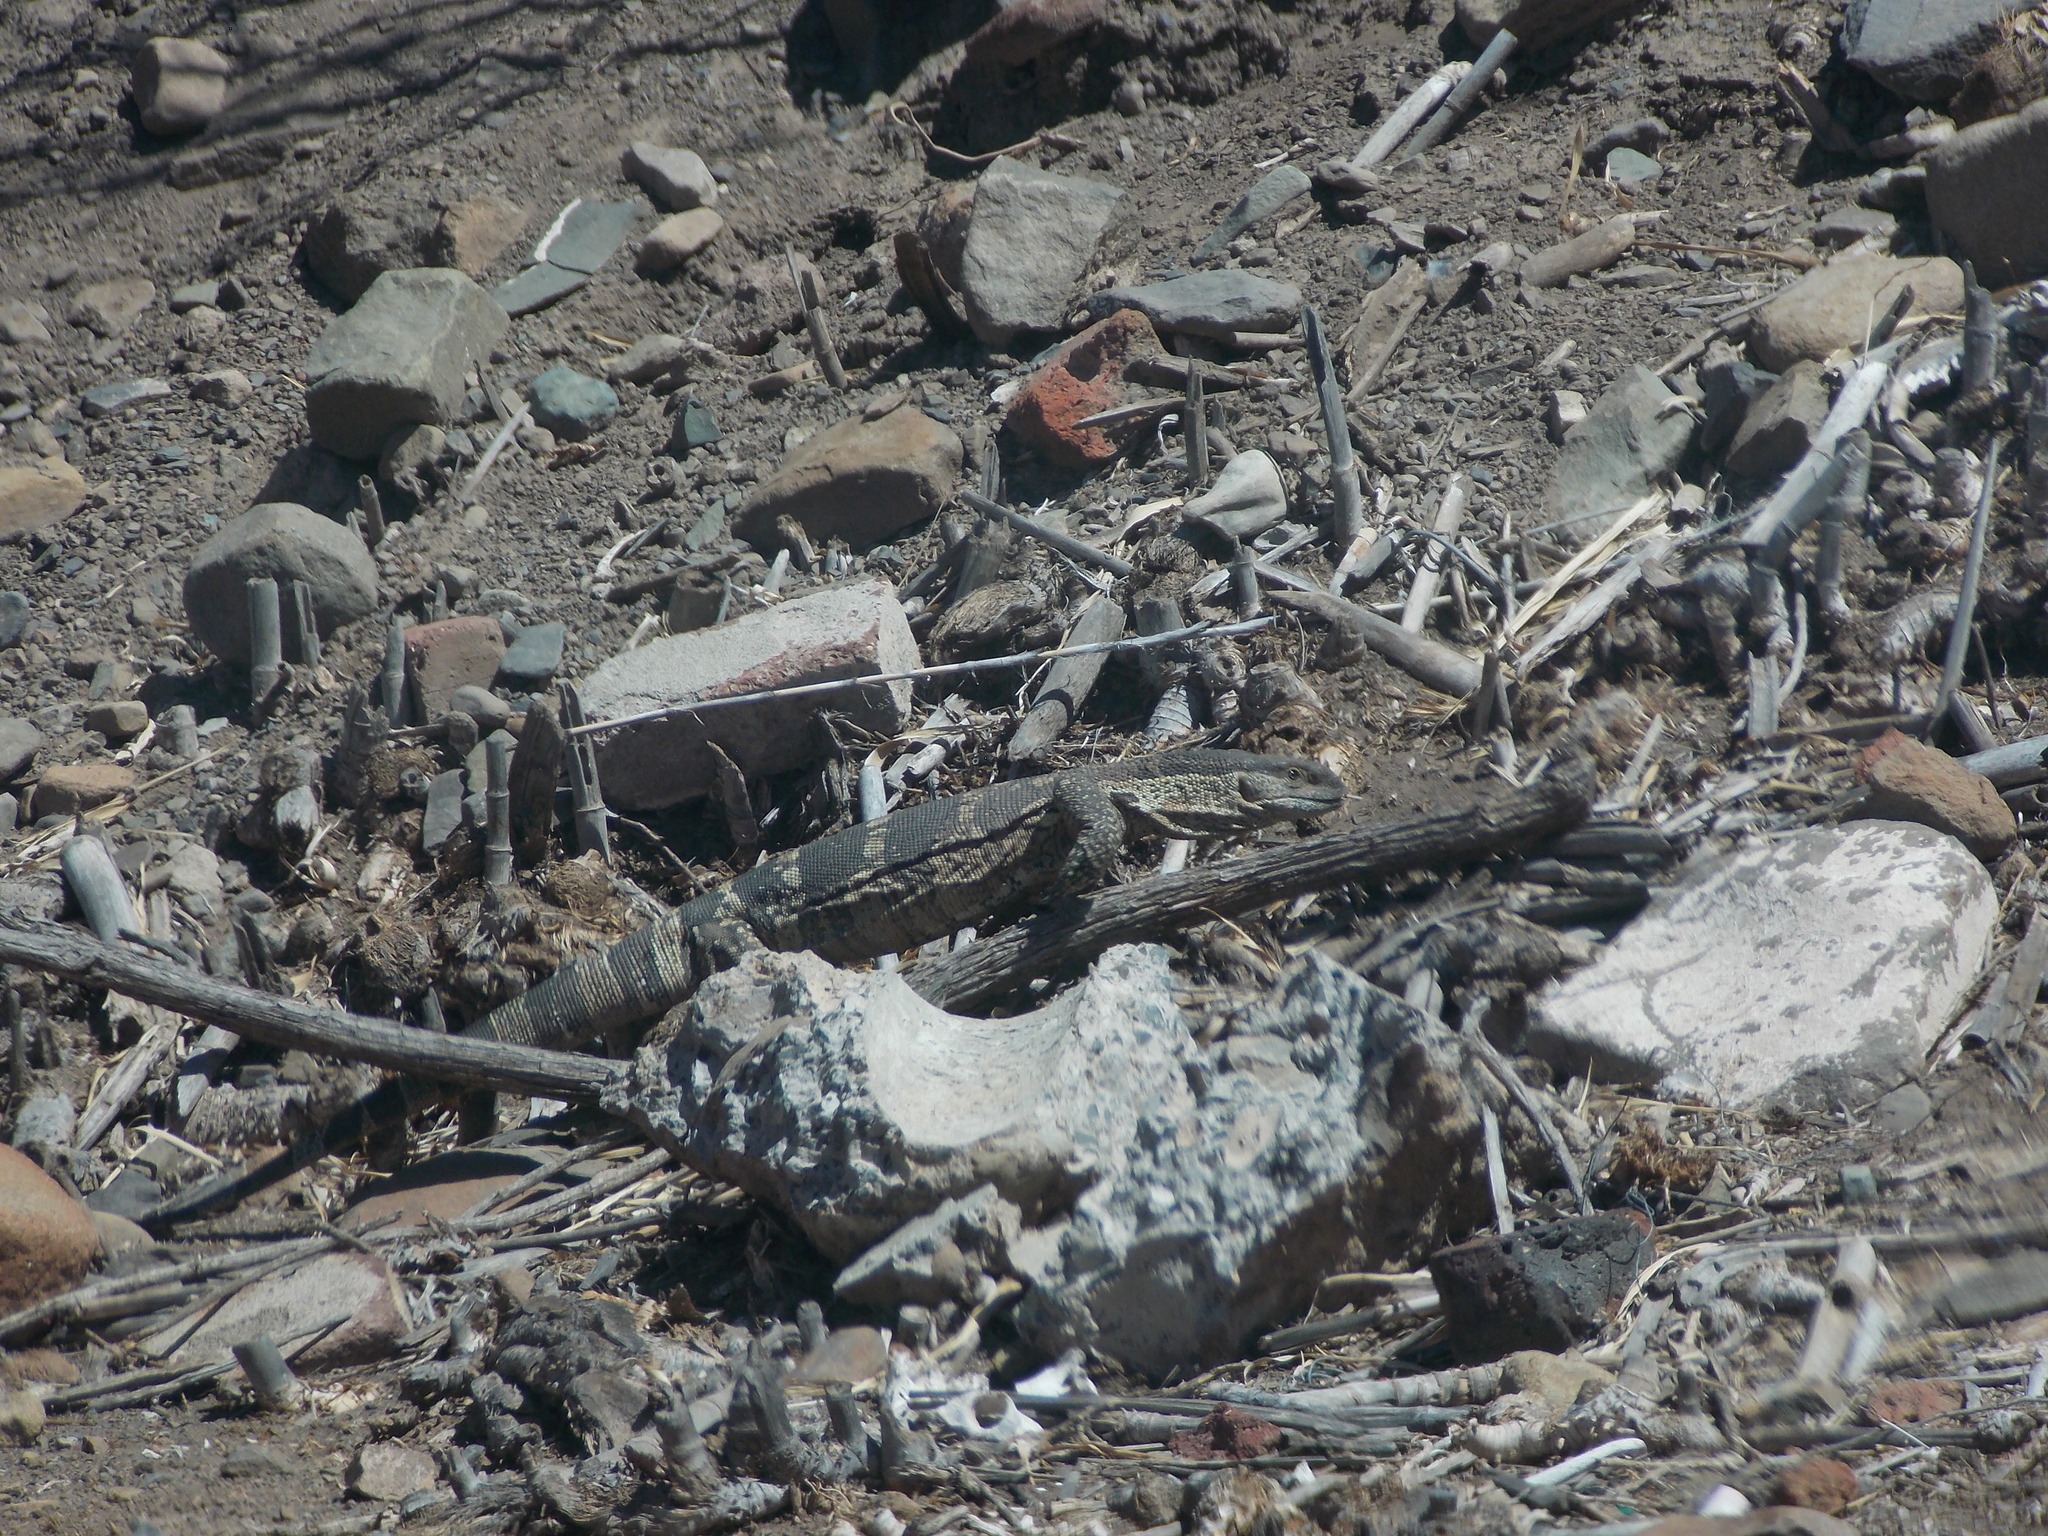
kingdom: Animalia
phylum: Chordata
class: Squamata
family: Varanidae
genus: Varanus
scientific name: Varanus albigularis
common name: White-throated monitor
